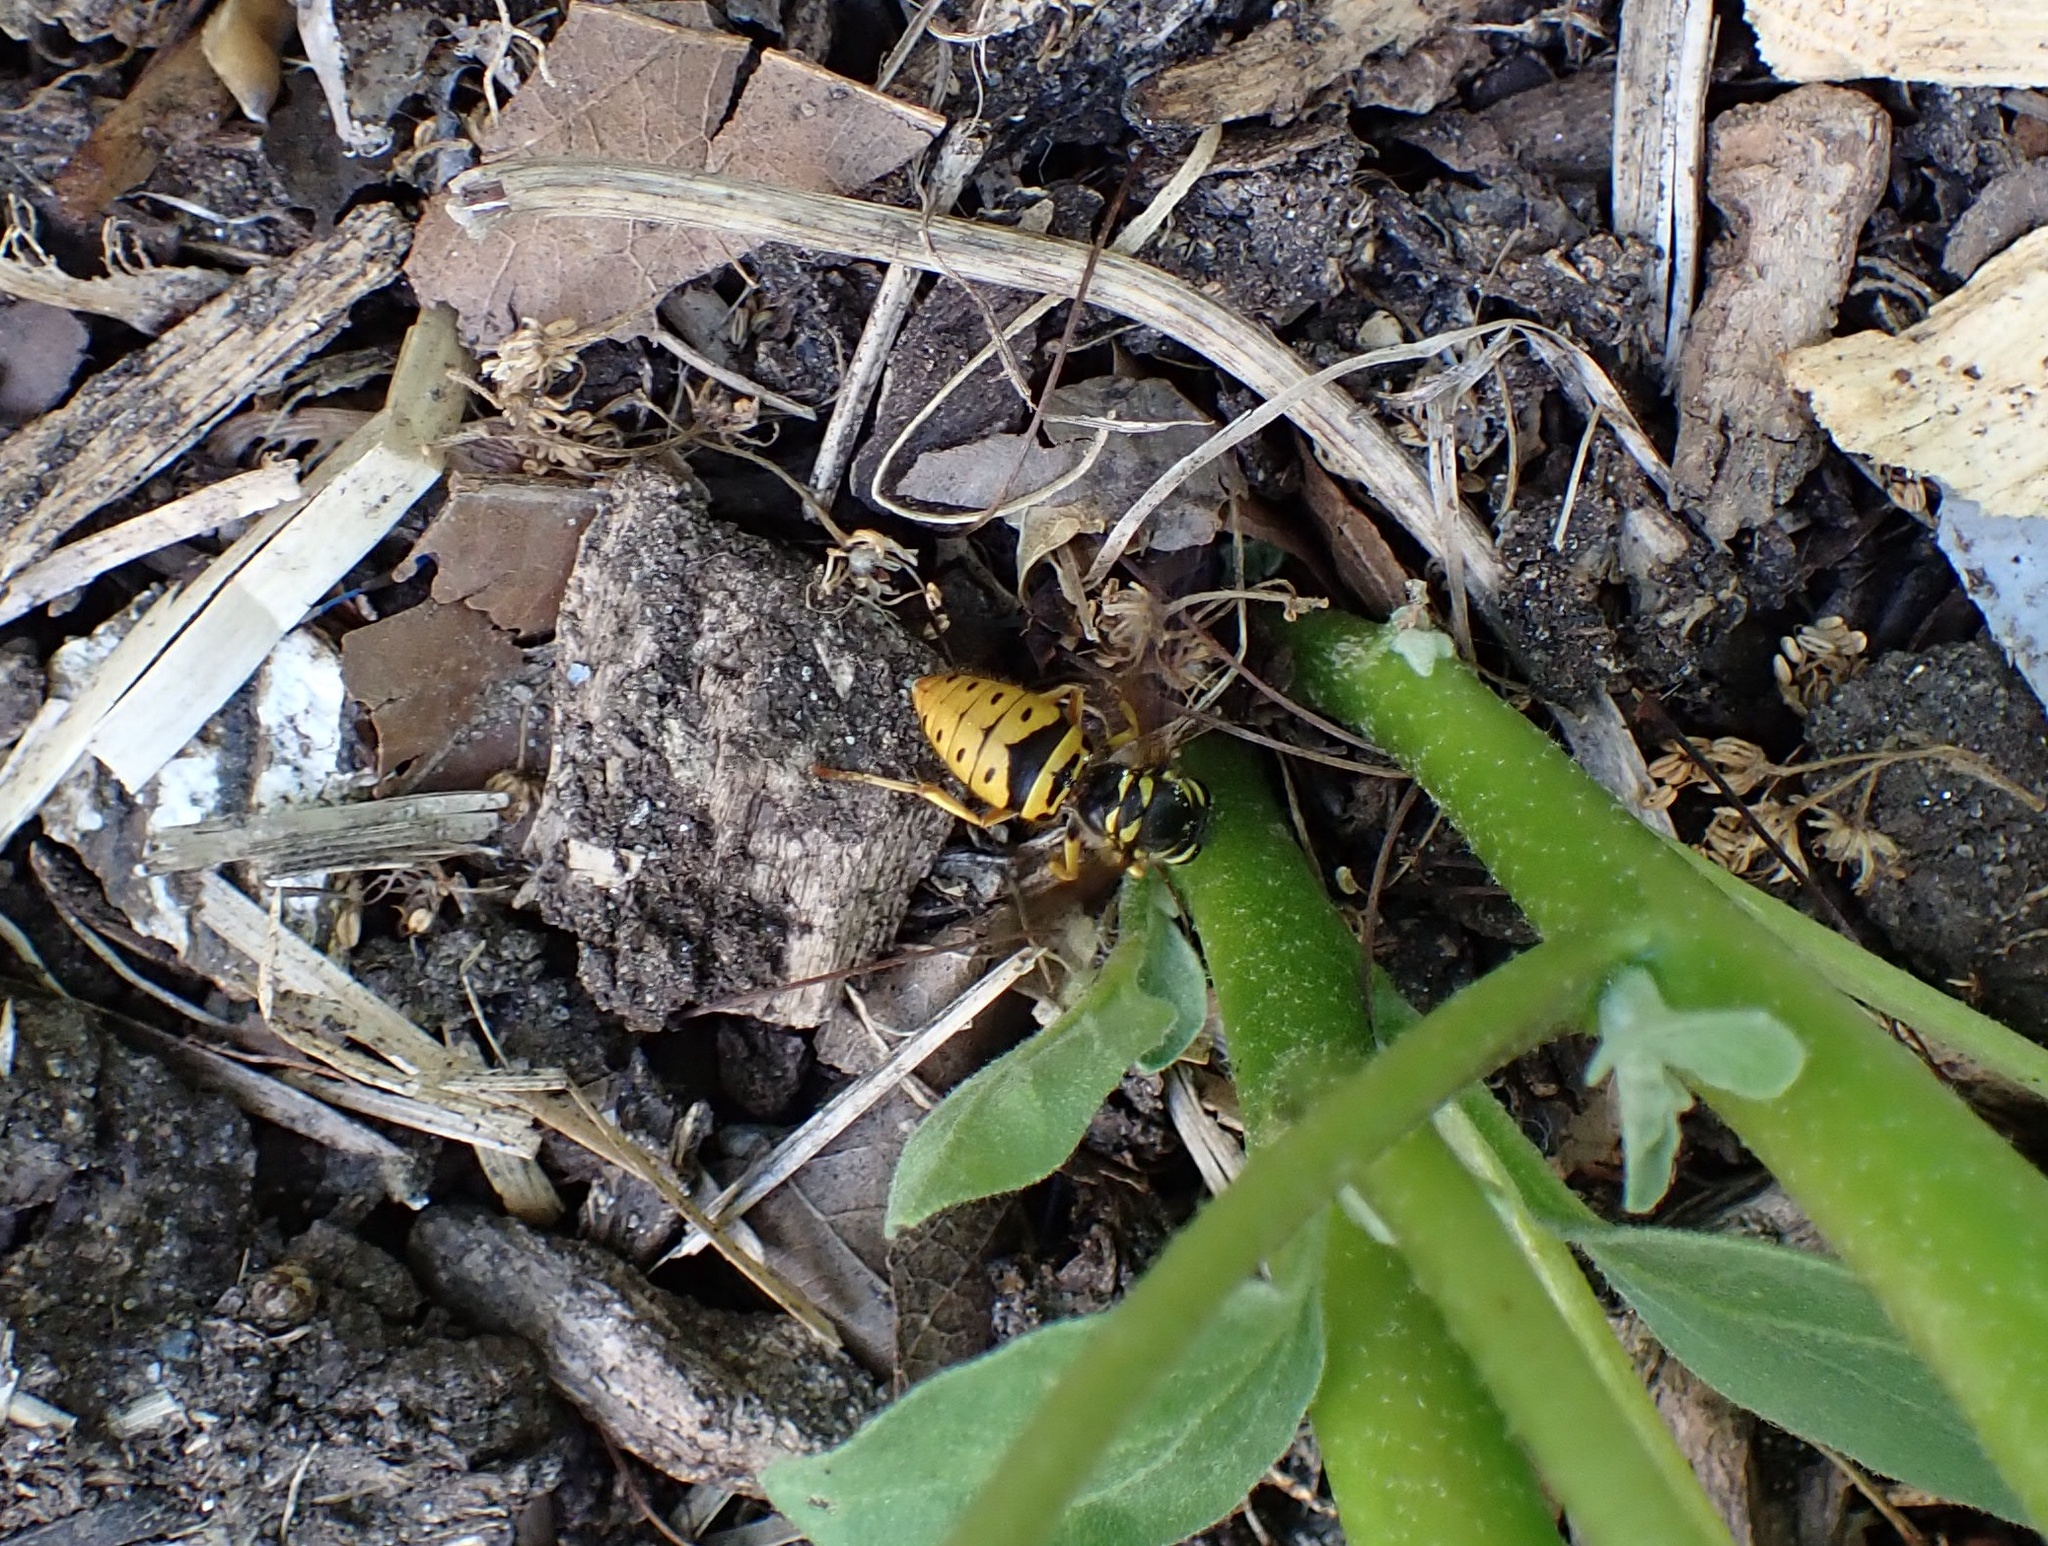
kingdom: Animalia
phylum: Arthropoda
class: Insecta
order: Hymenoptera
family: Vespidae
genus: Vespula
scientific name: Vespula maculifrons
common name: Eastern yellowjacket
